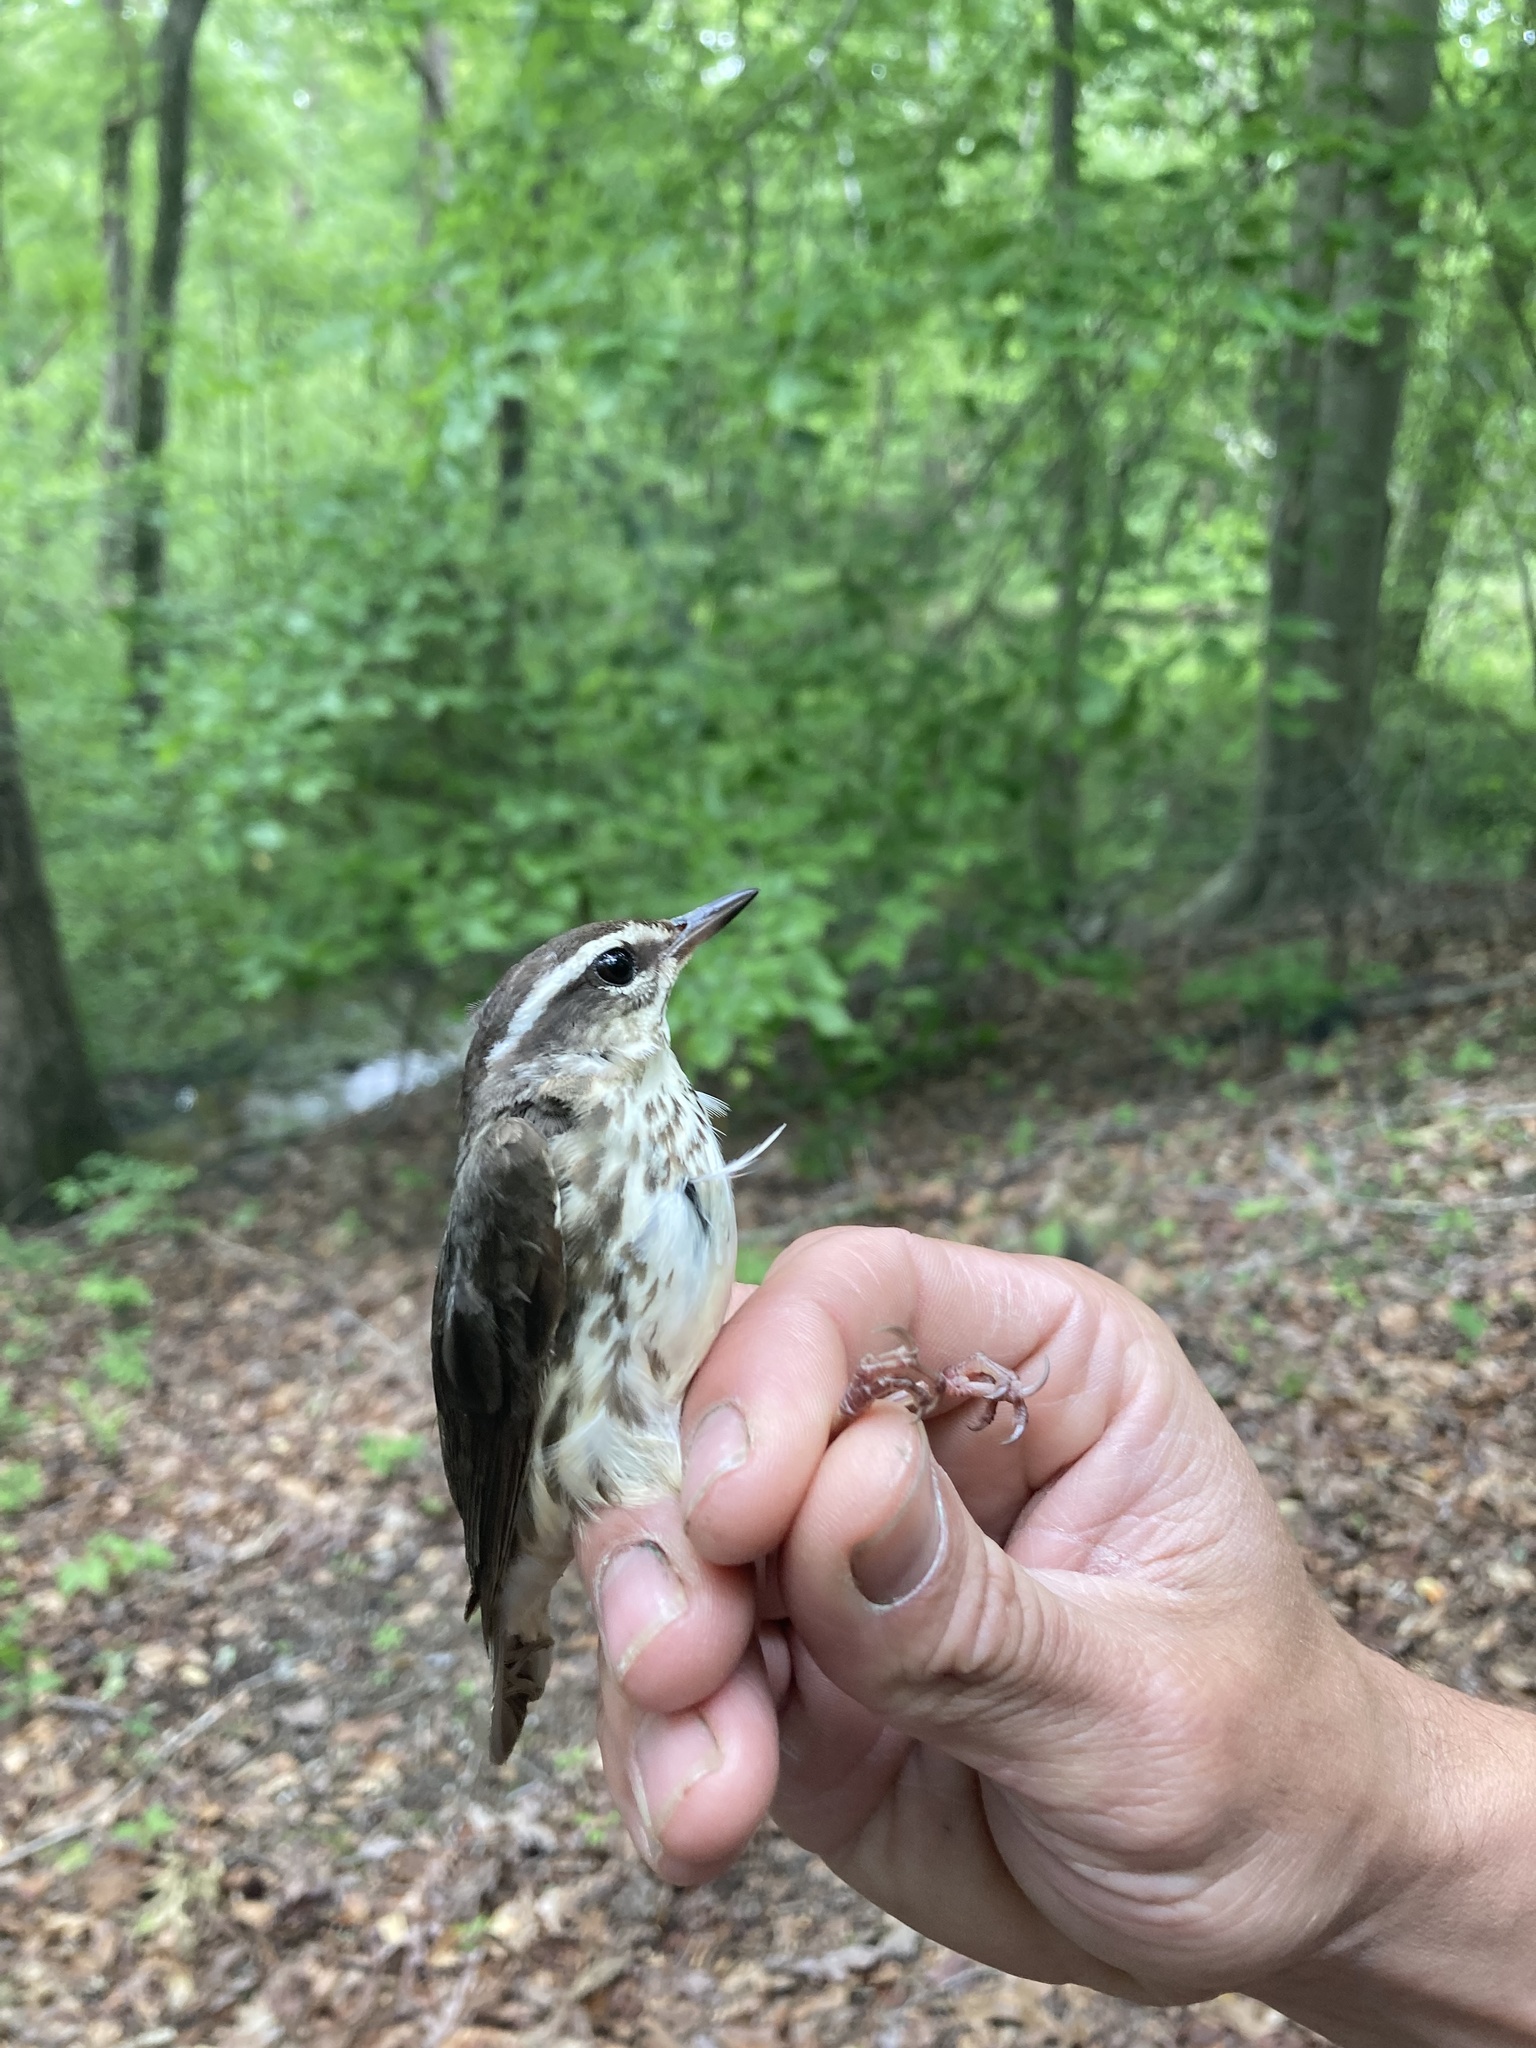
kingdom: Animalia
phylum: Chordata
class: Aves
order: Passeriformes
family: Parulidae
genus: Parkesia
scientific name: Parkesia motacilla
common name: Louisiana waterthrush
